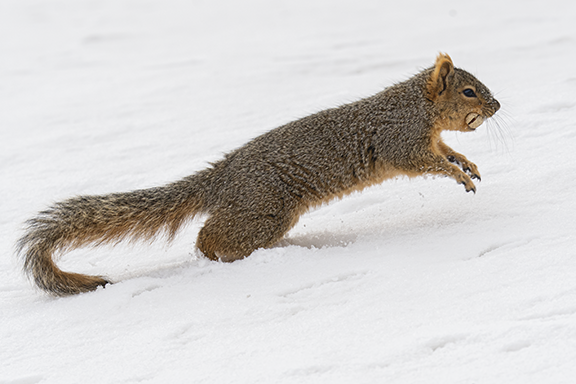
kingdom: Animalia
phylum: Chordata
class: Mammalia
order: Rodentia
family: Sciuridae
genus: Sciurus
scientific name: Sciurus niger
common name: Fox squirrel
